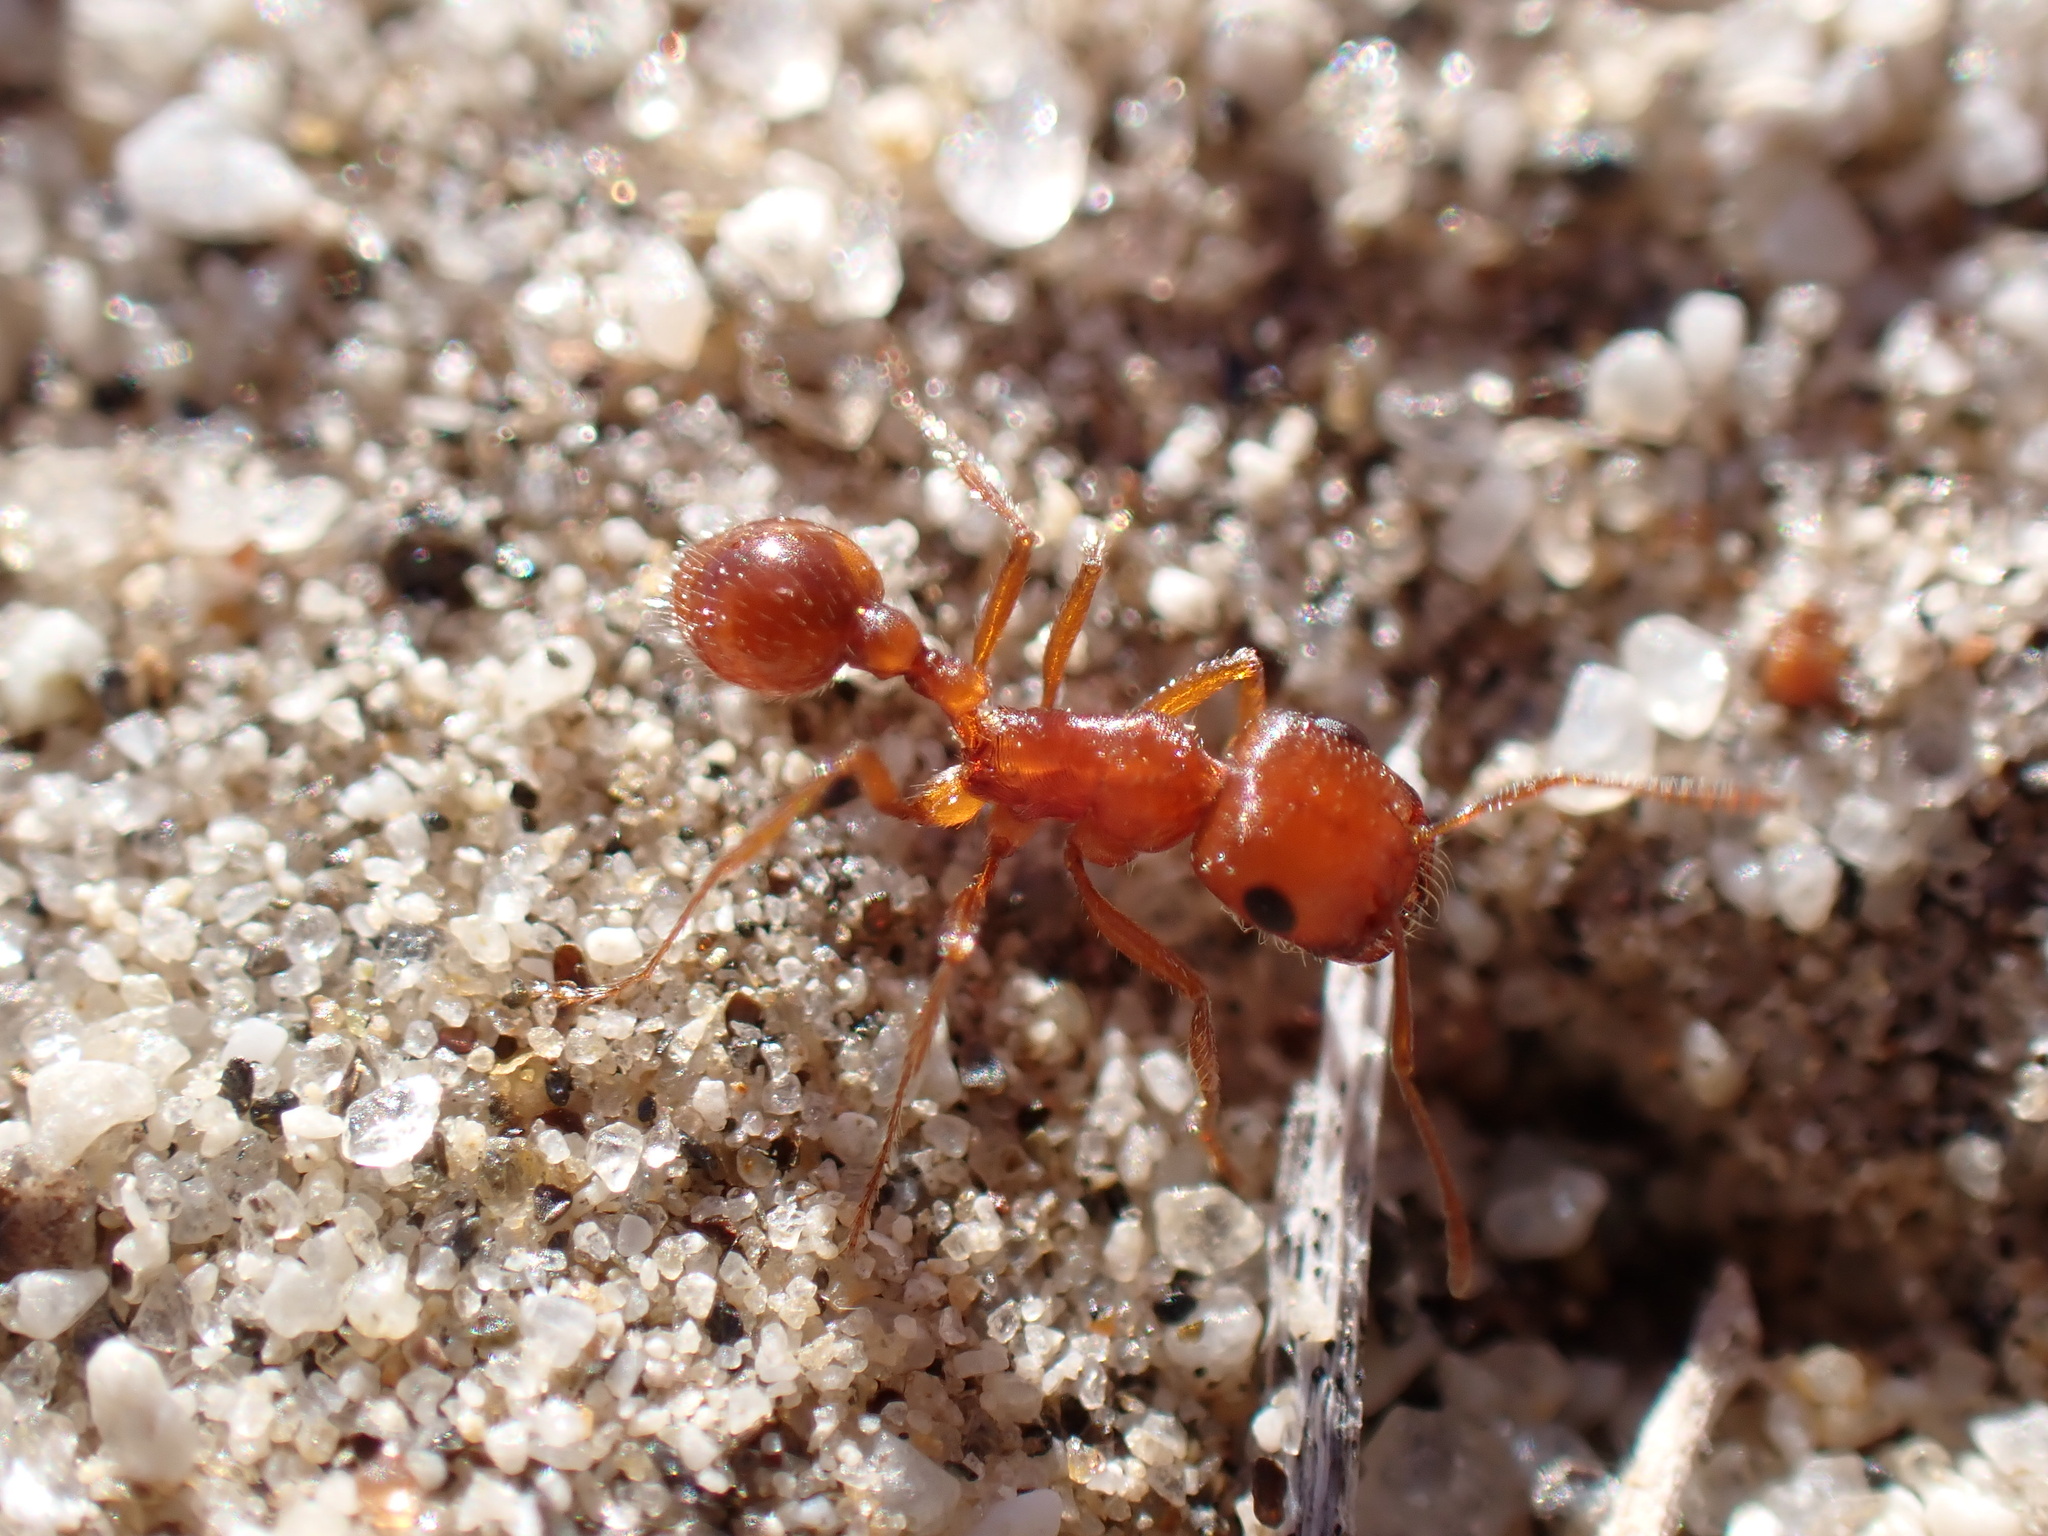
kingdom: Animalia
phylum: Arthropoda
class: Insecta
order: Hymenoptera
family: Formicidae
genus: Pogonomyrmex
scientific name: Pogonomyrmex magnacanthus
